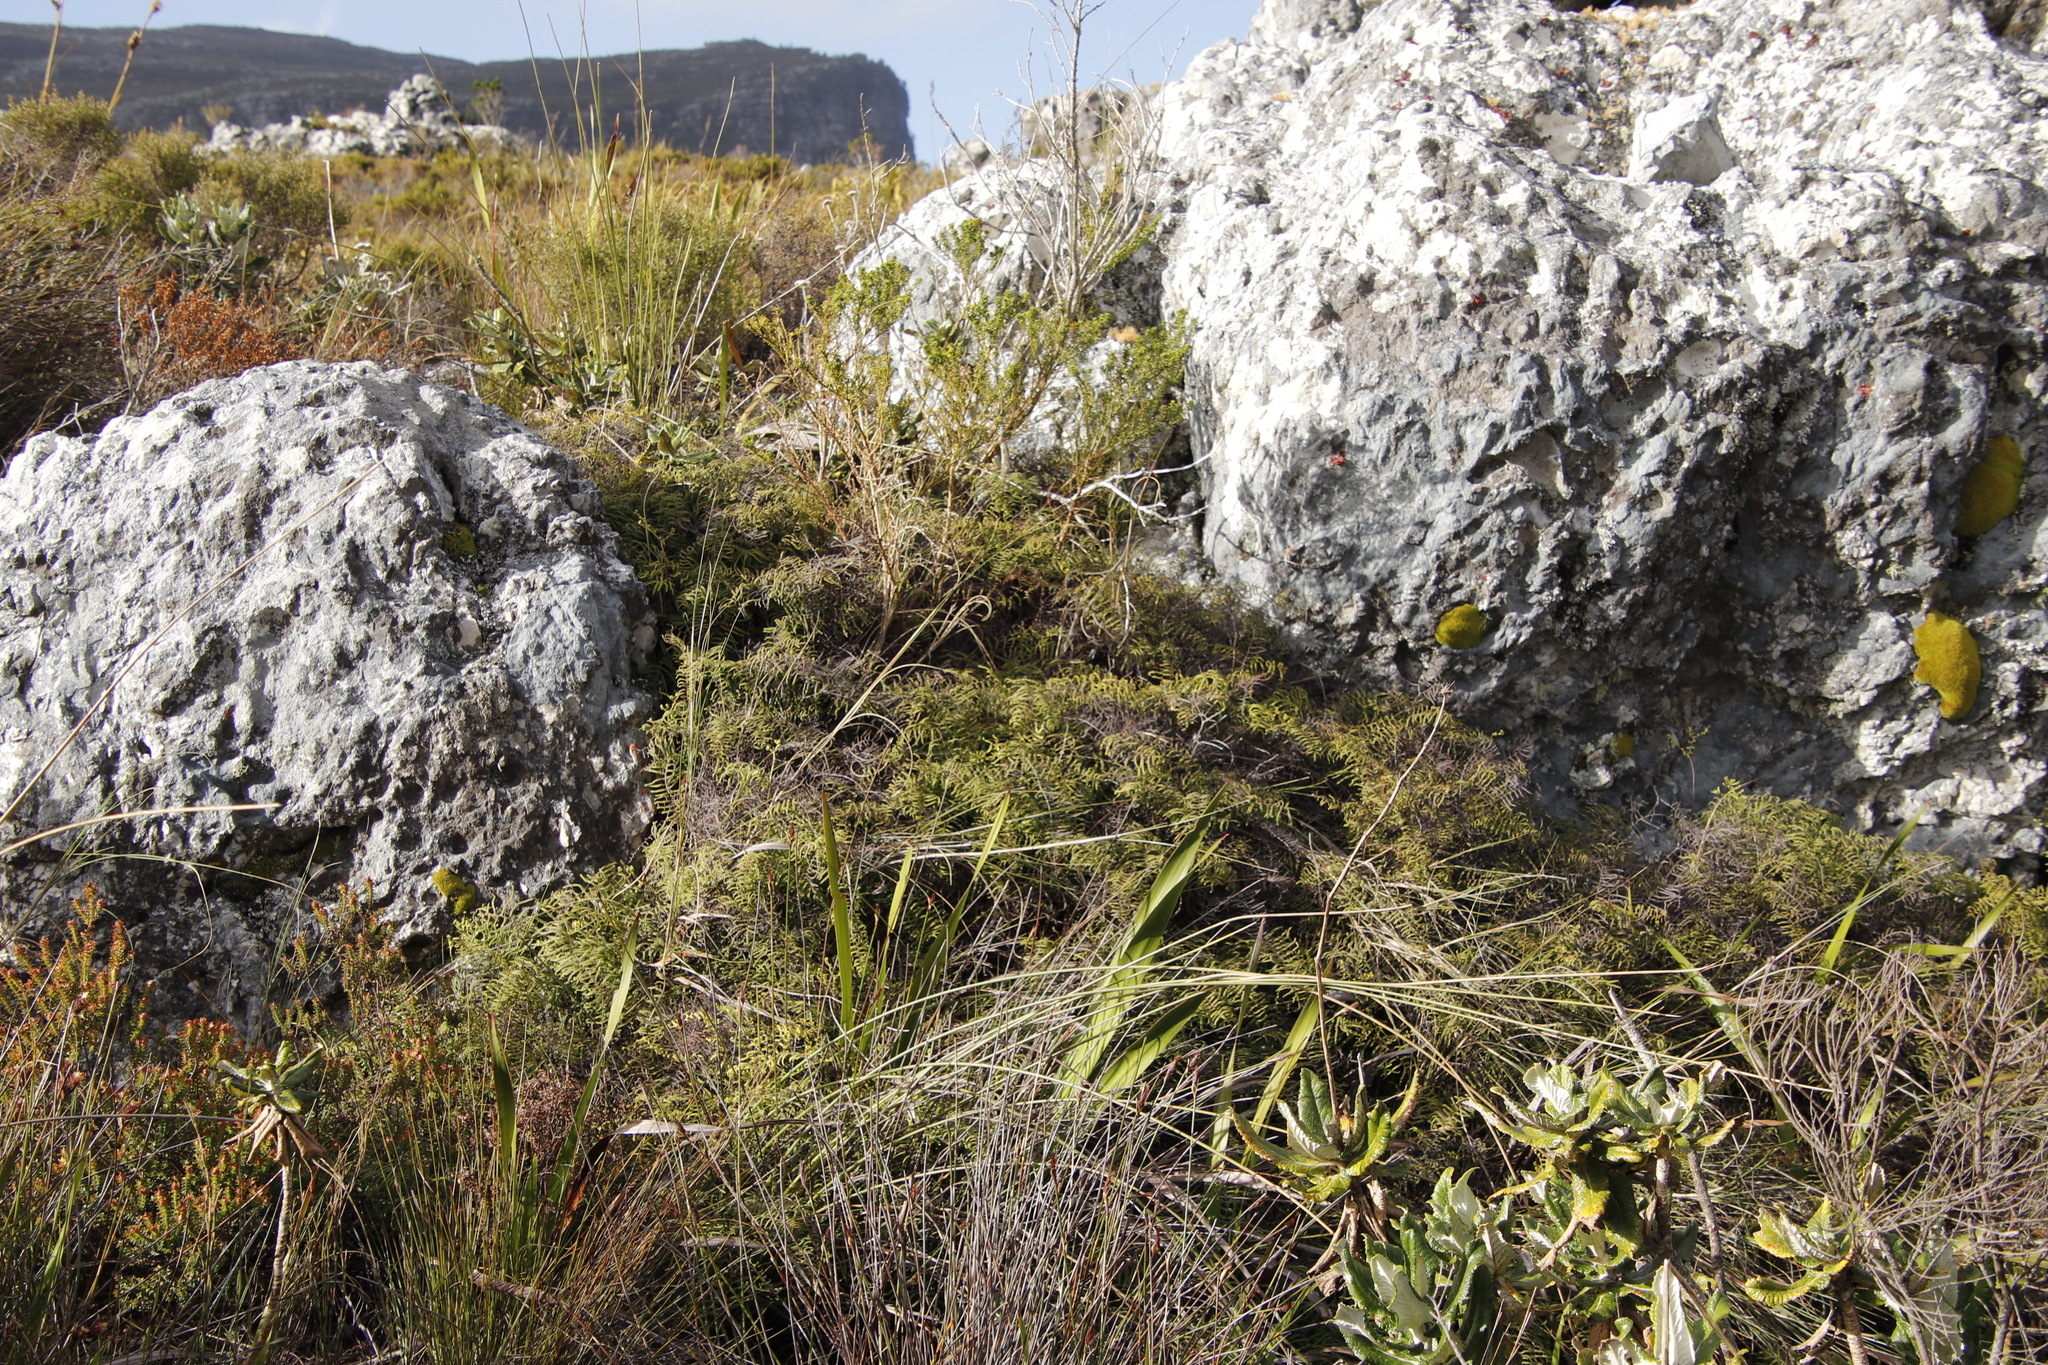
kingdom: Plantae
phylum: Tracheophyta
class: Polypodiopsida
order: Gleicheniales
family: Gleicheniaceae
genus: Gleichenia
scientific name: Gleichenia polypodioides
